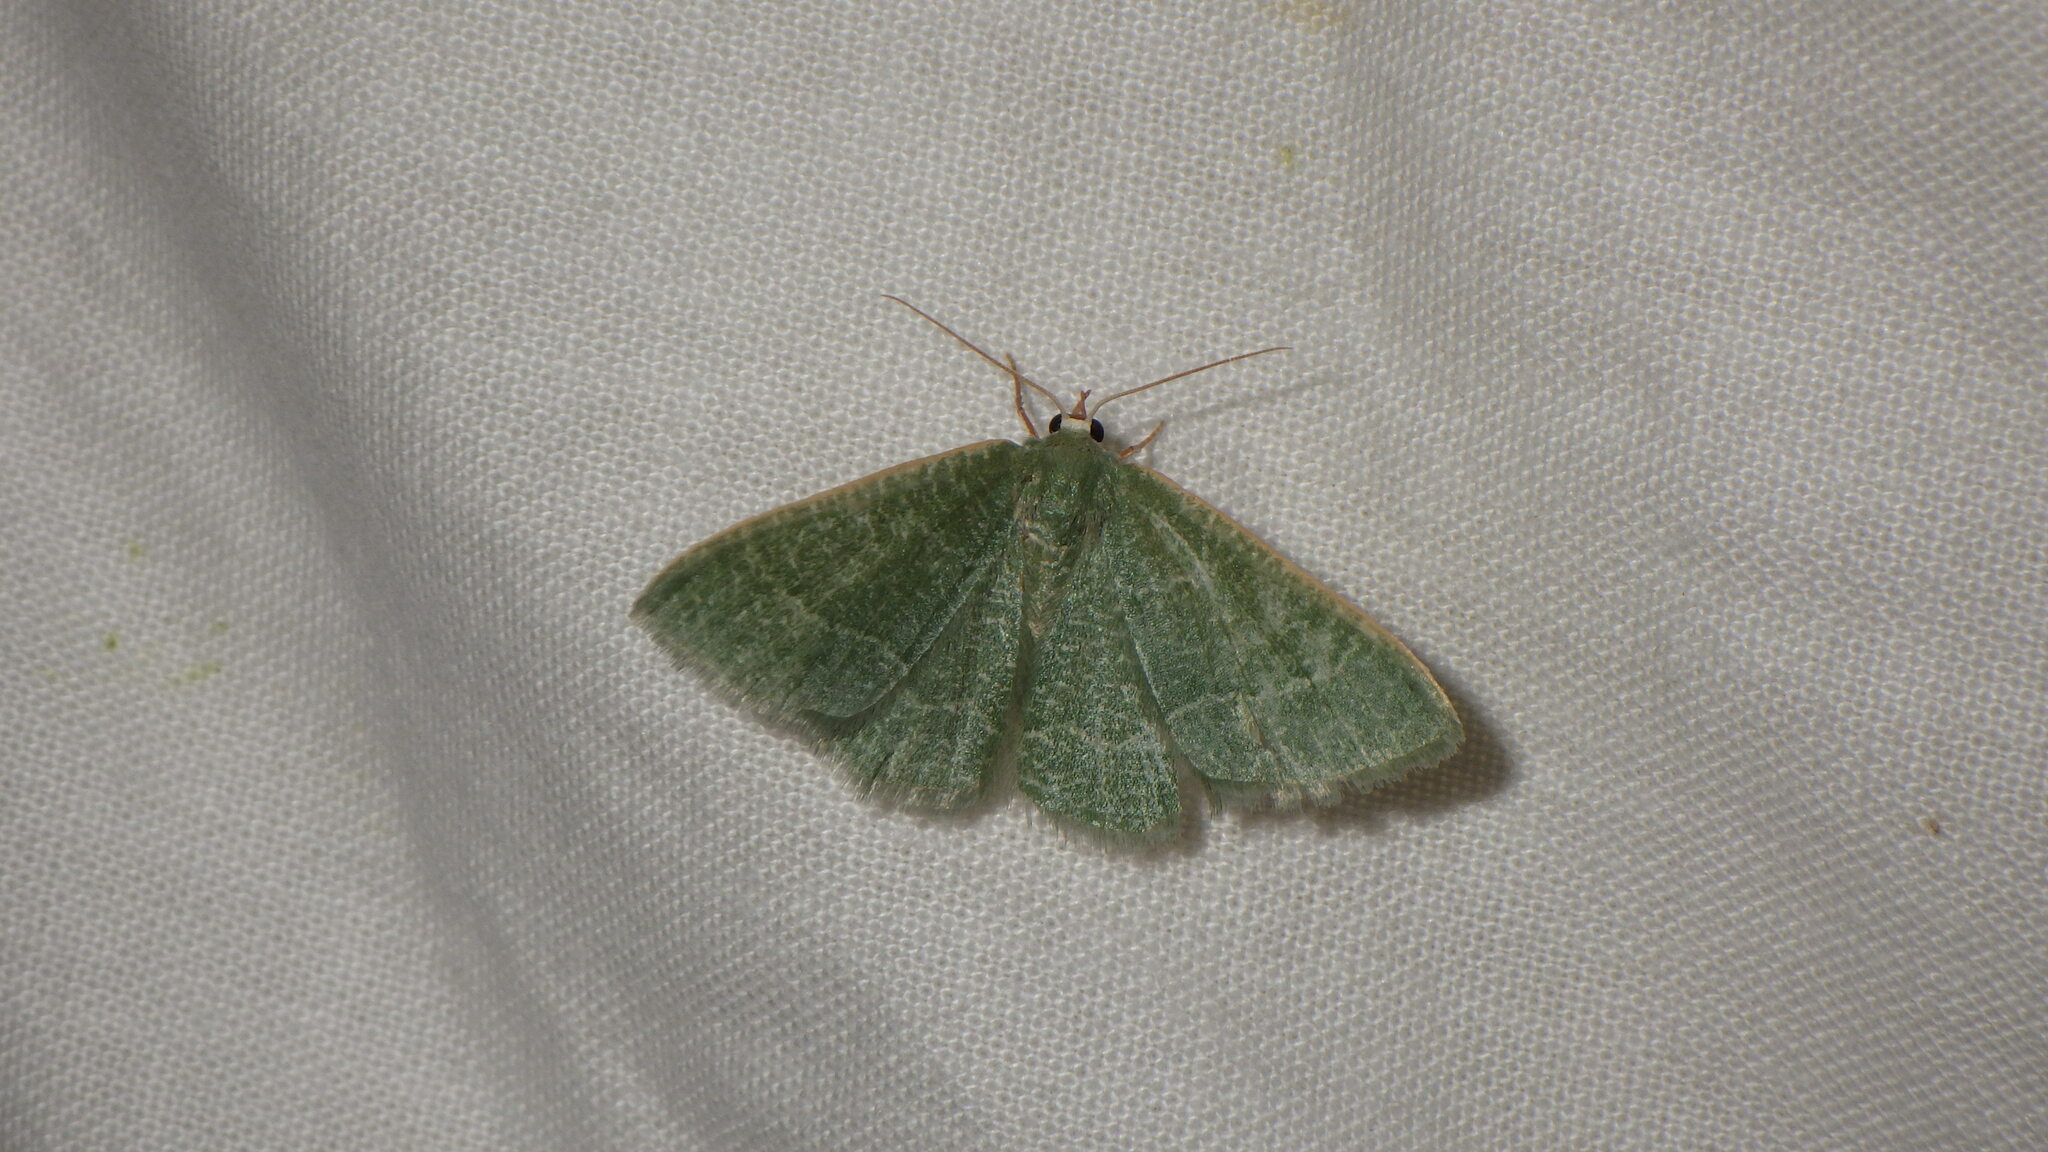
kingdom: Animalia
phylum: Arthropoda
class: Insecta
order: Lepidoptera
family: Geometridae
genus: Chlorissa
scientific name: Chlorissa etruscaria
